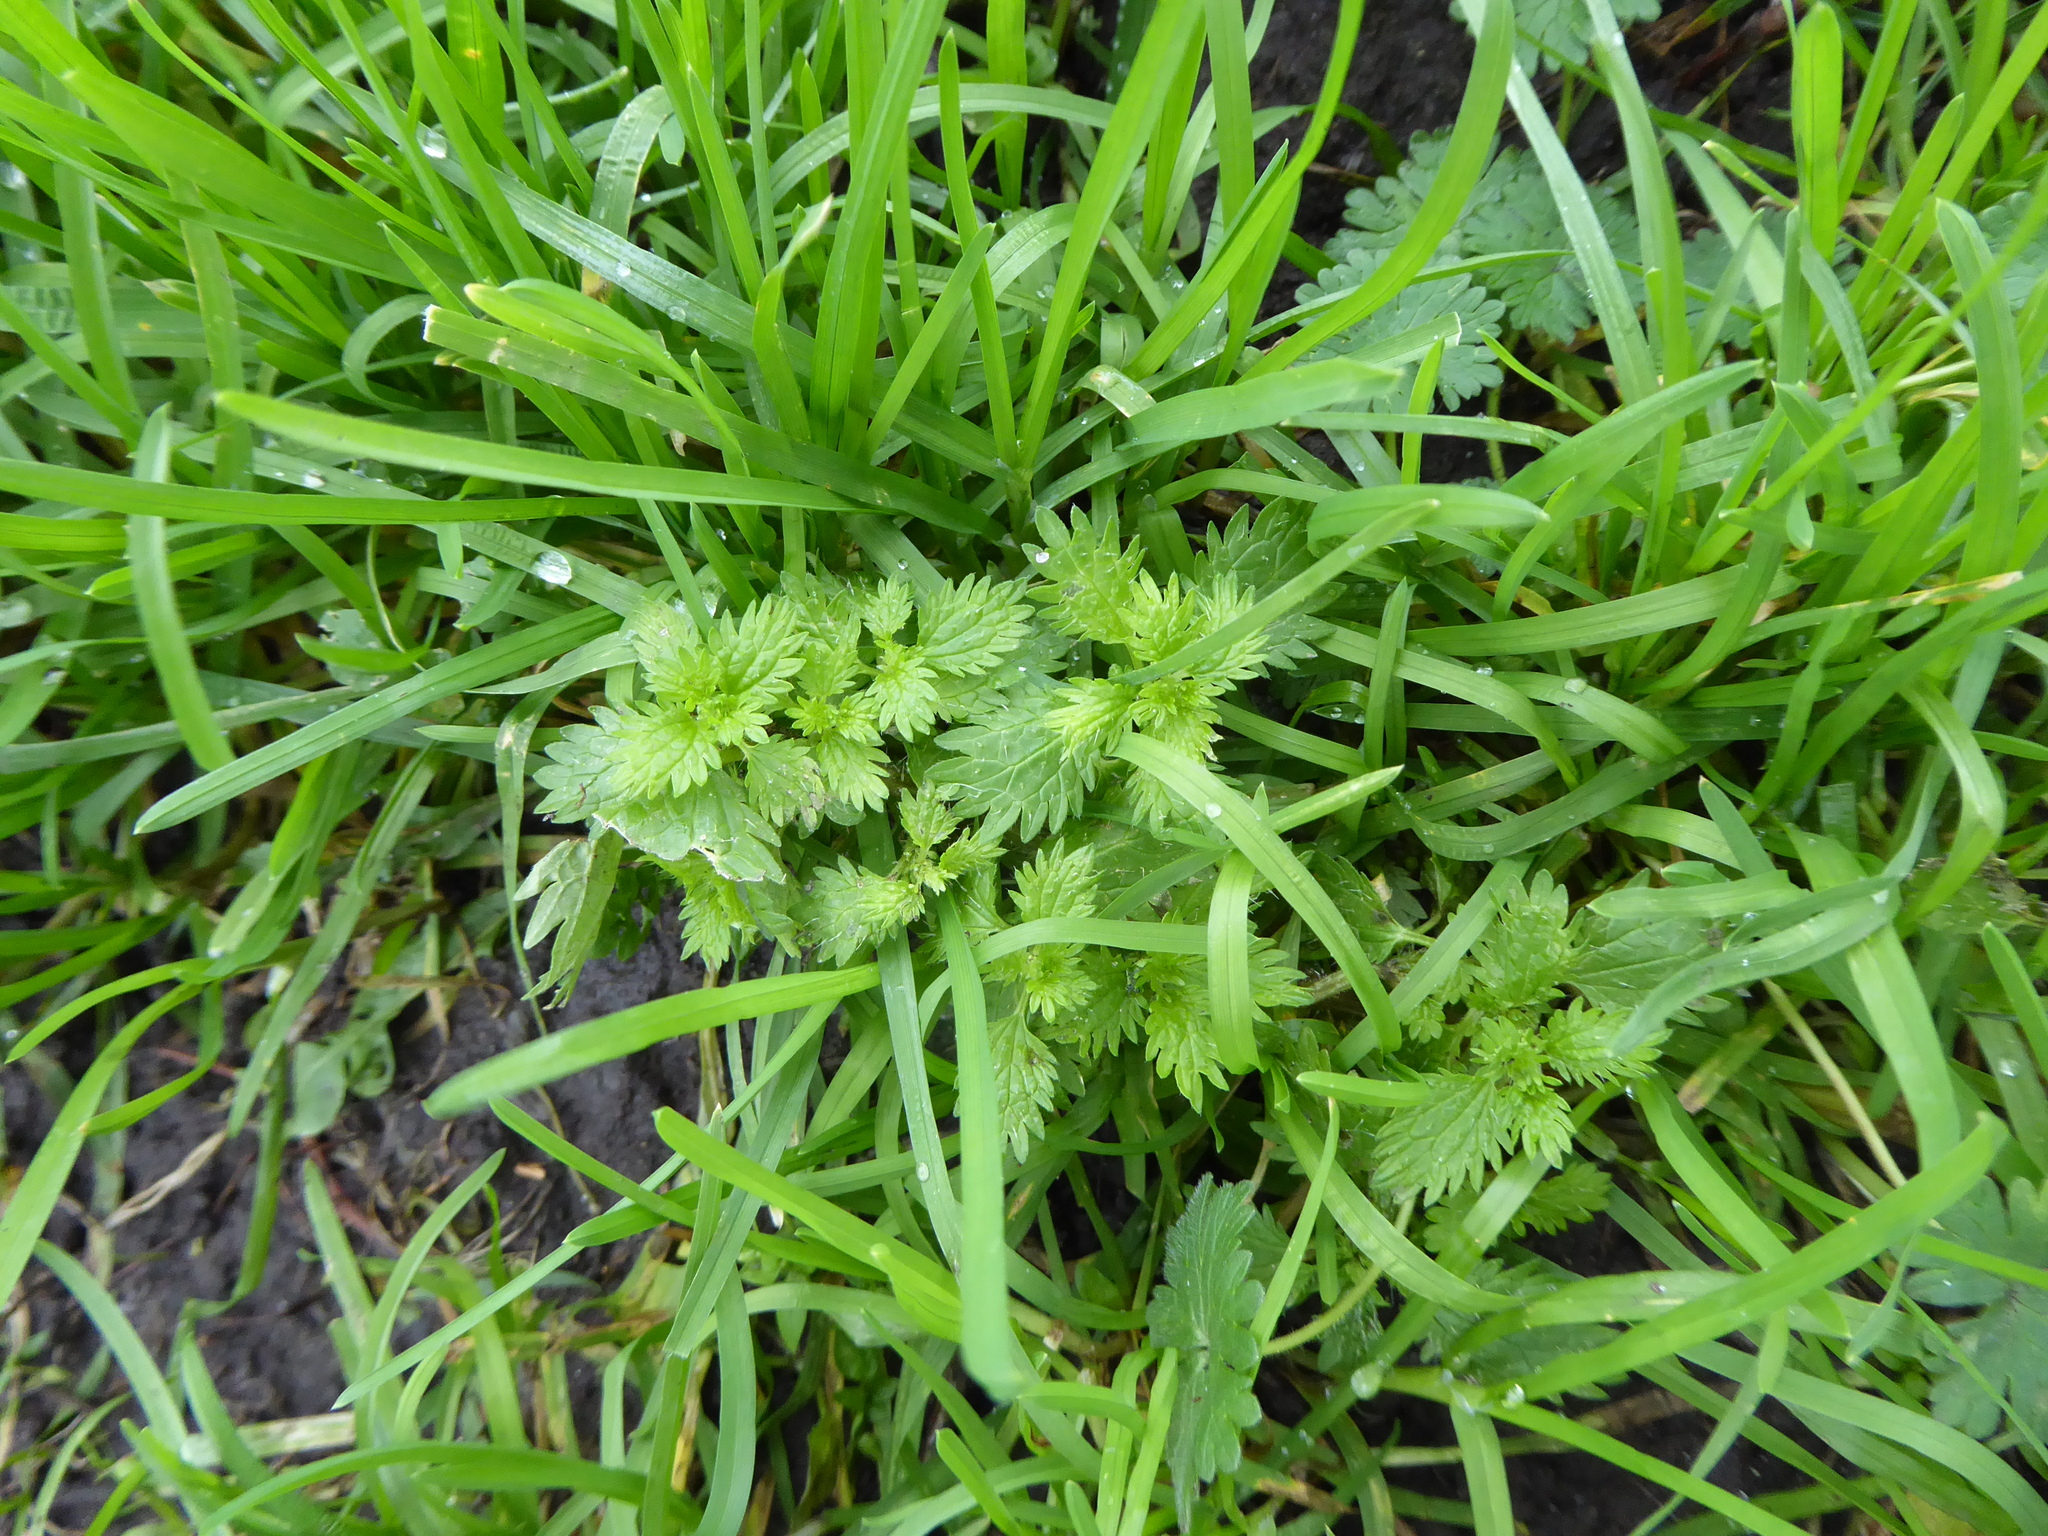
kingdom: Plantae
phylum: Tracheophyta
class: Magnoliopsida
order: Rosales
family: Urticaceae
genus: Urtica
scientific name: Urtica urens
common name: Dwarf nettle
